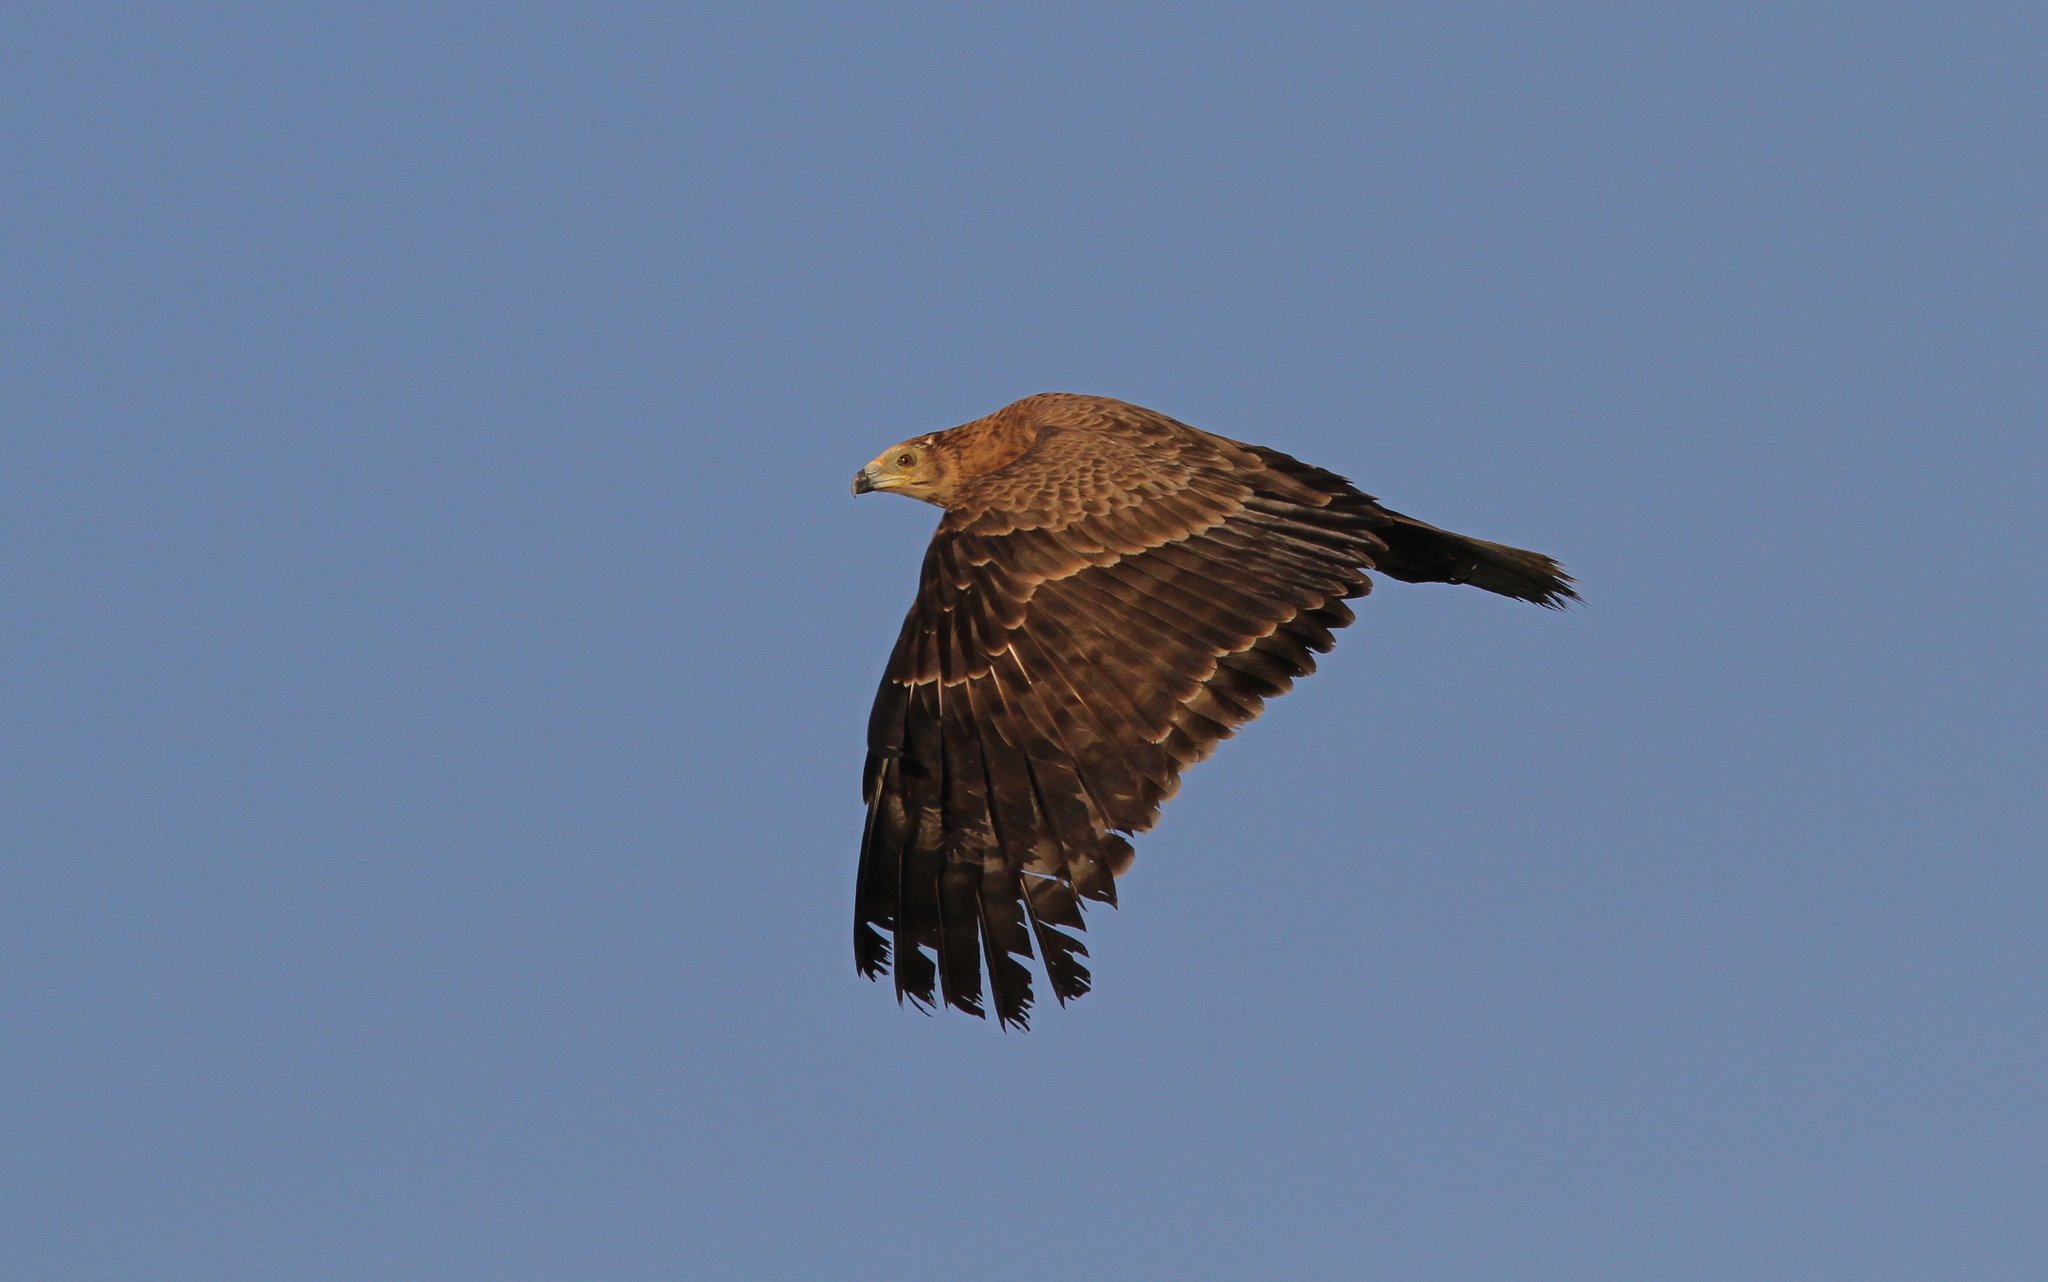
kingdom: Animalia
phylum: Chordata
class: Aves
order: Accipitriformes
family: Accipitridae
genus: Polyboroides
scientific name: Polyboroides typus
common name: African harrier-hawk
